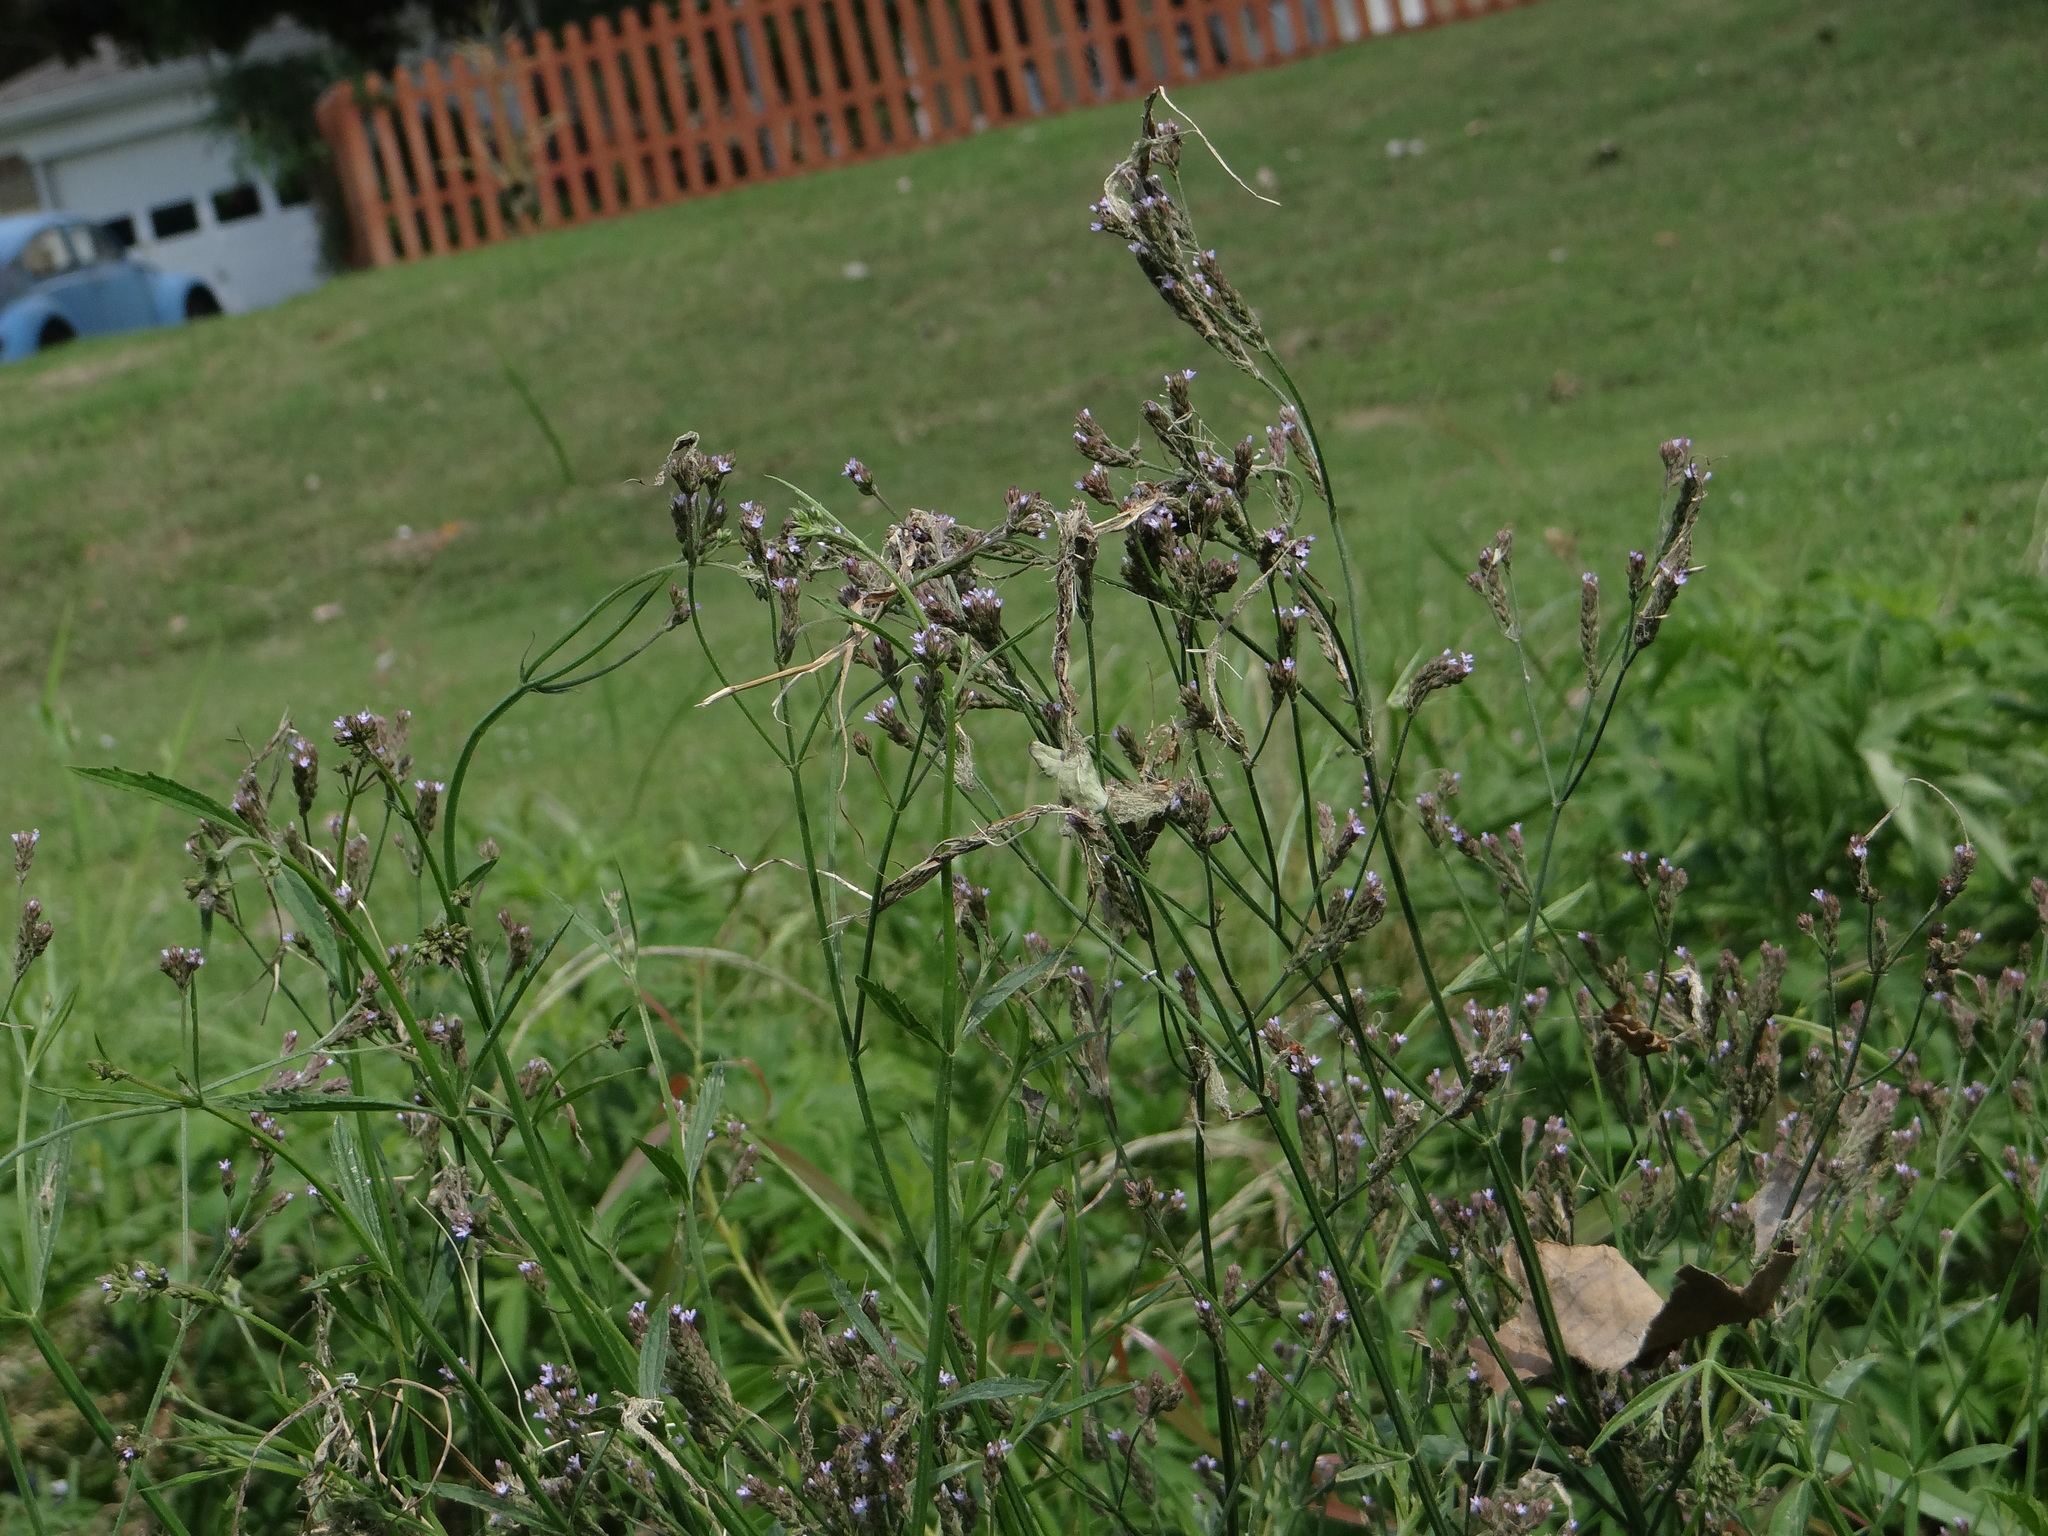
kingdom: Plantae
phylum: Tracheophyta
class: Magnoliopsida
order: Lamiales
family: Verbenaceae
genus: Verbena
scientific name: Verbena brasiliensis
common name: Brazilian vervain
